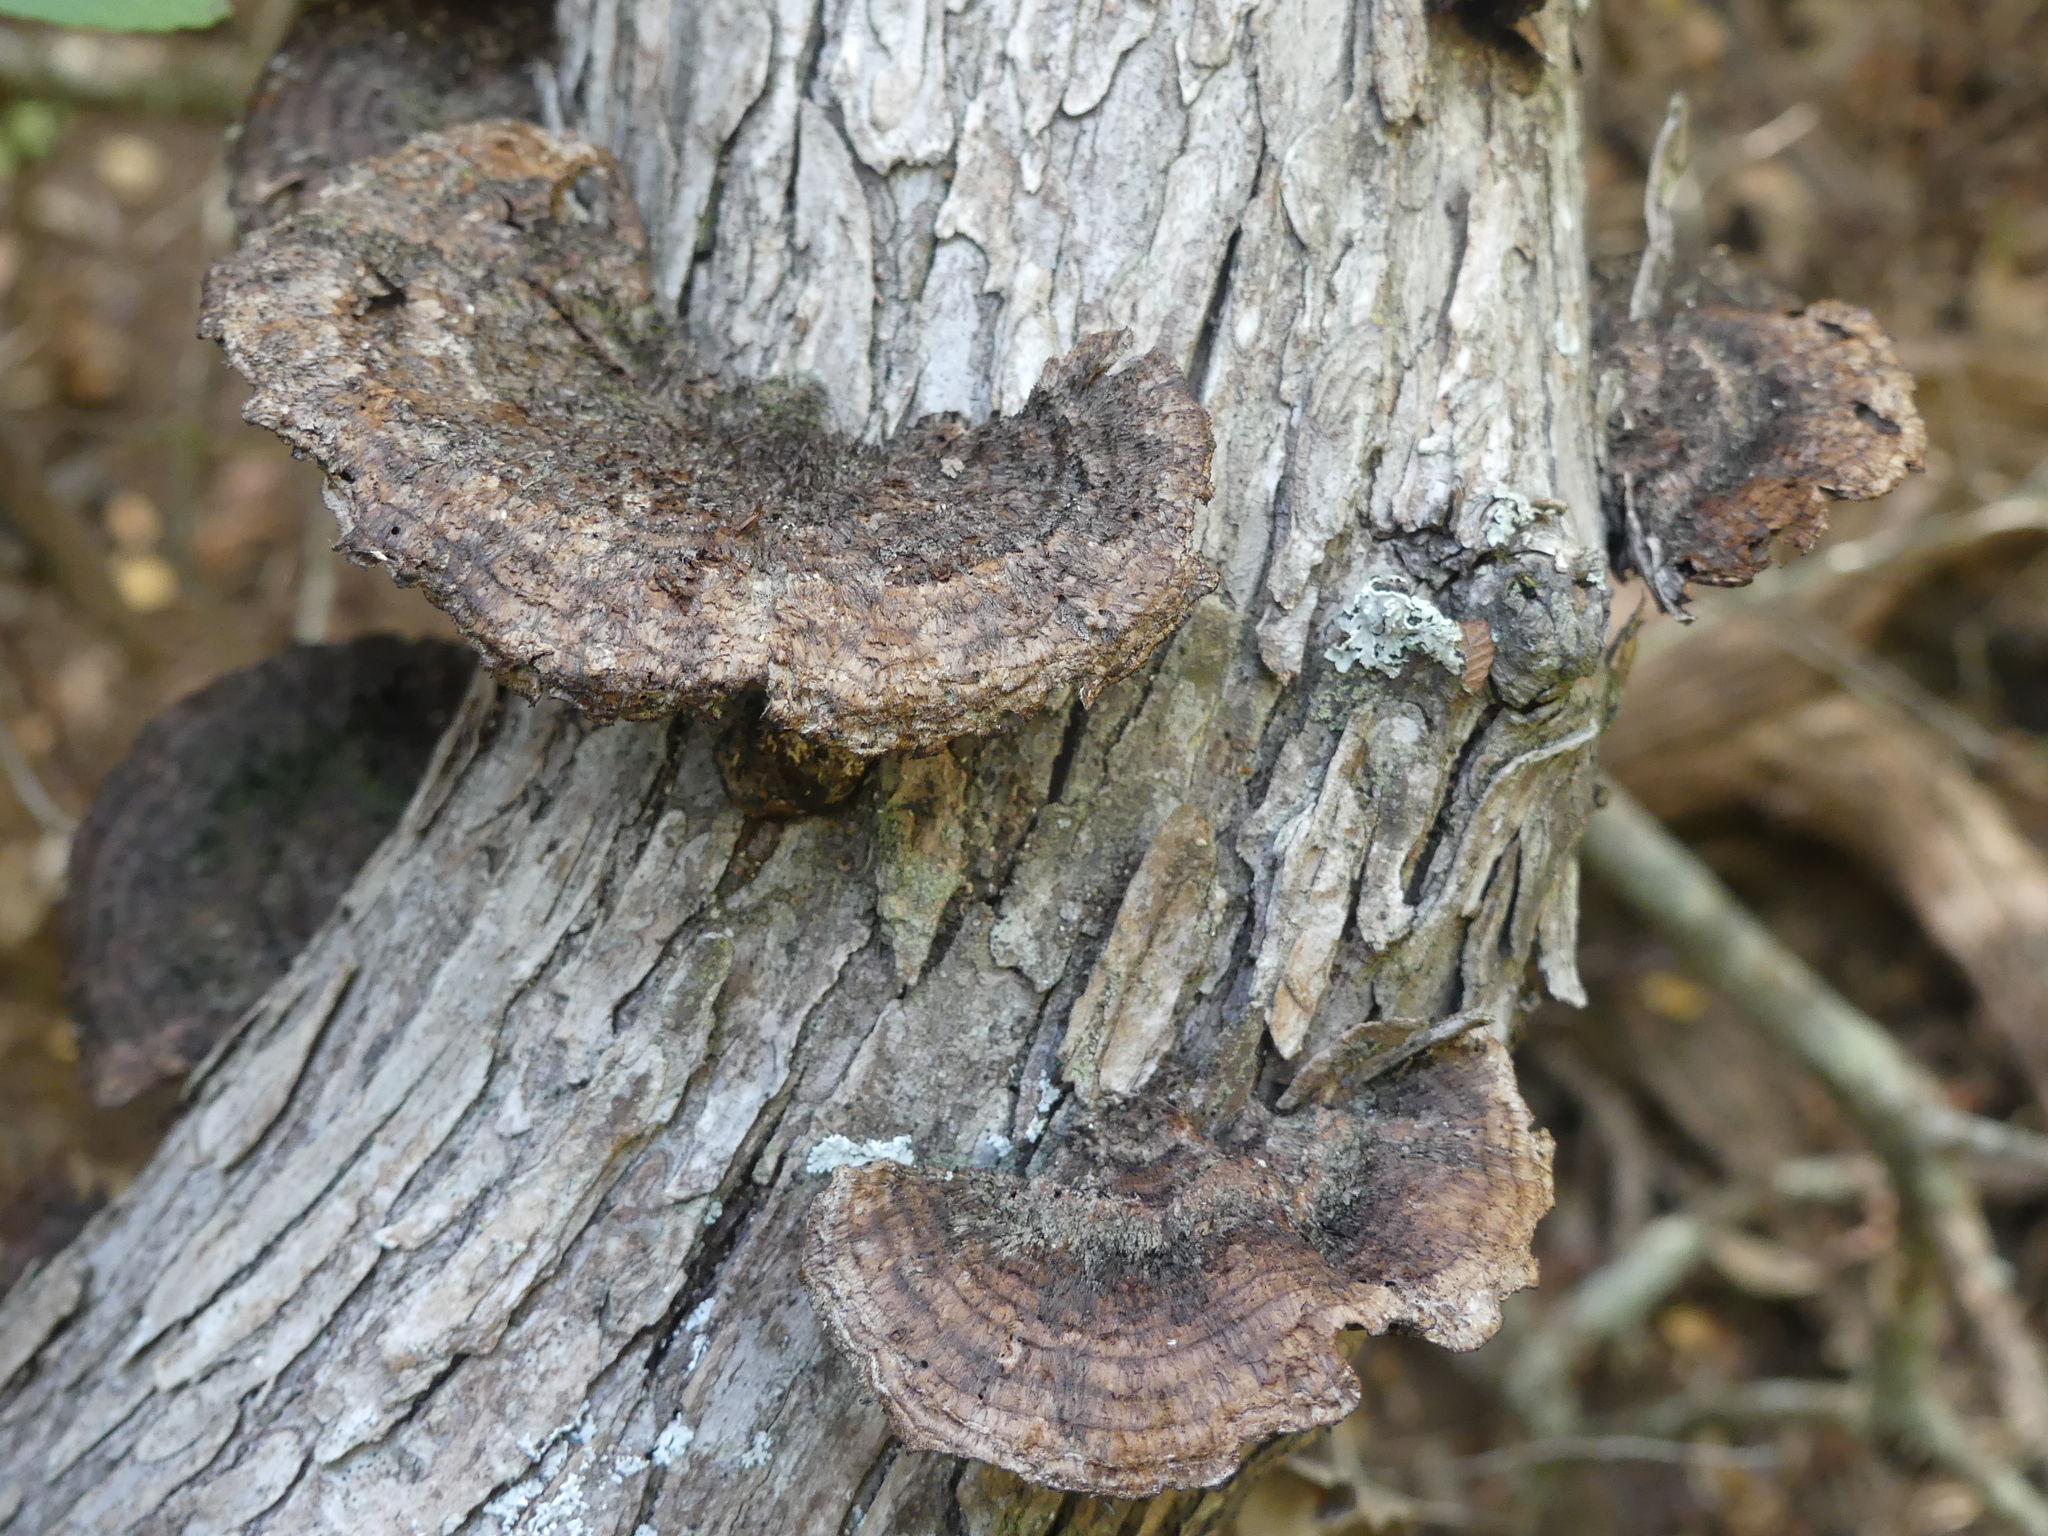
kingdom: Fungi
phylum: Basidiomycota
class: Agaricomycetes
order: Polyporales
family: Cerrenaceae
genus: Cerrena
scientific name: Cerrena hydnoides
